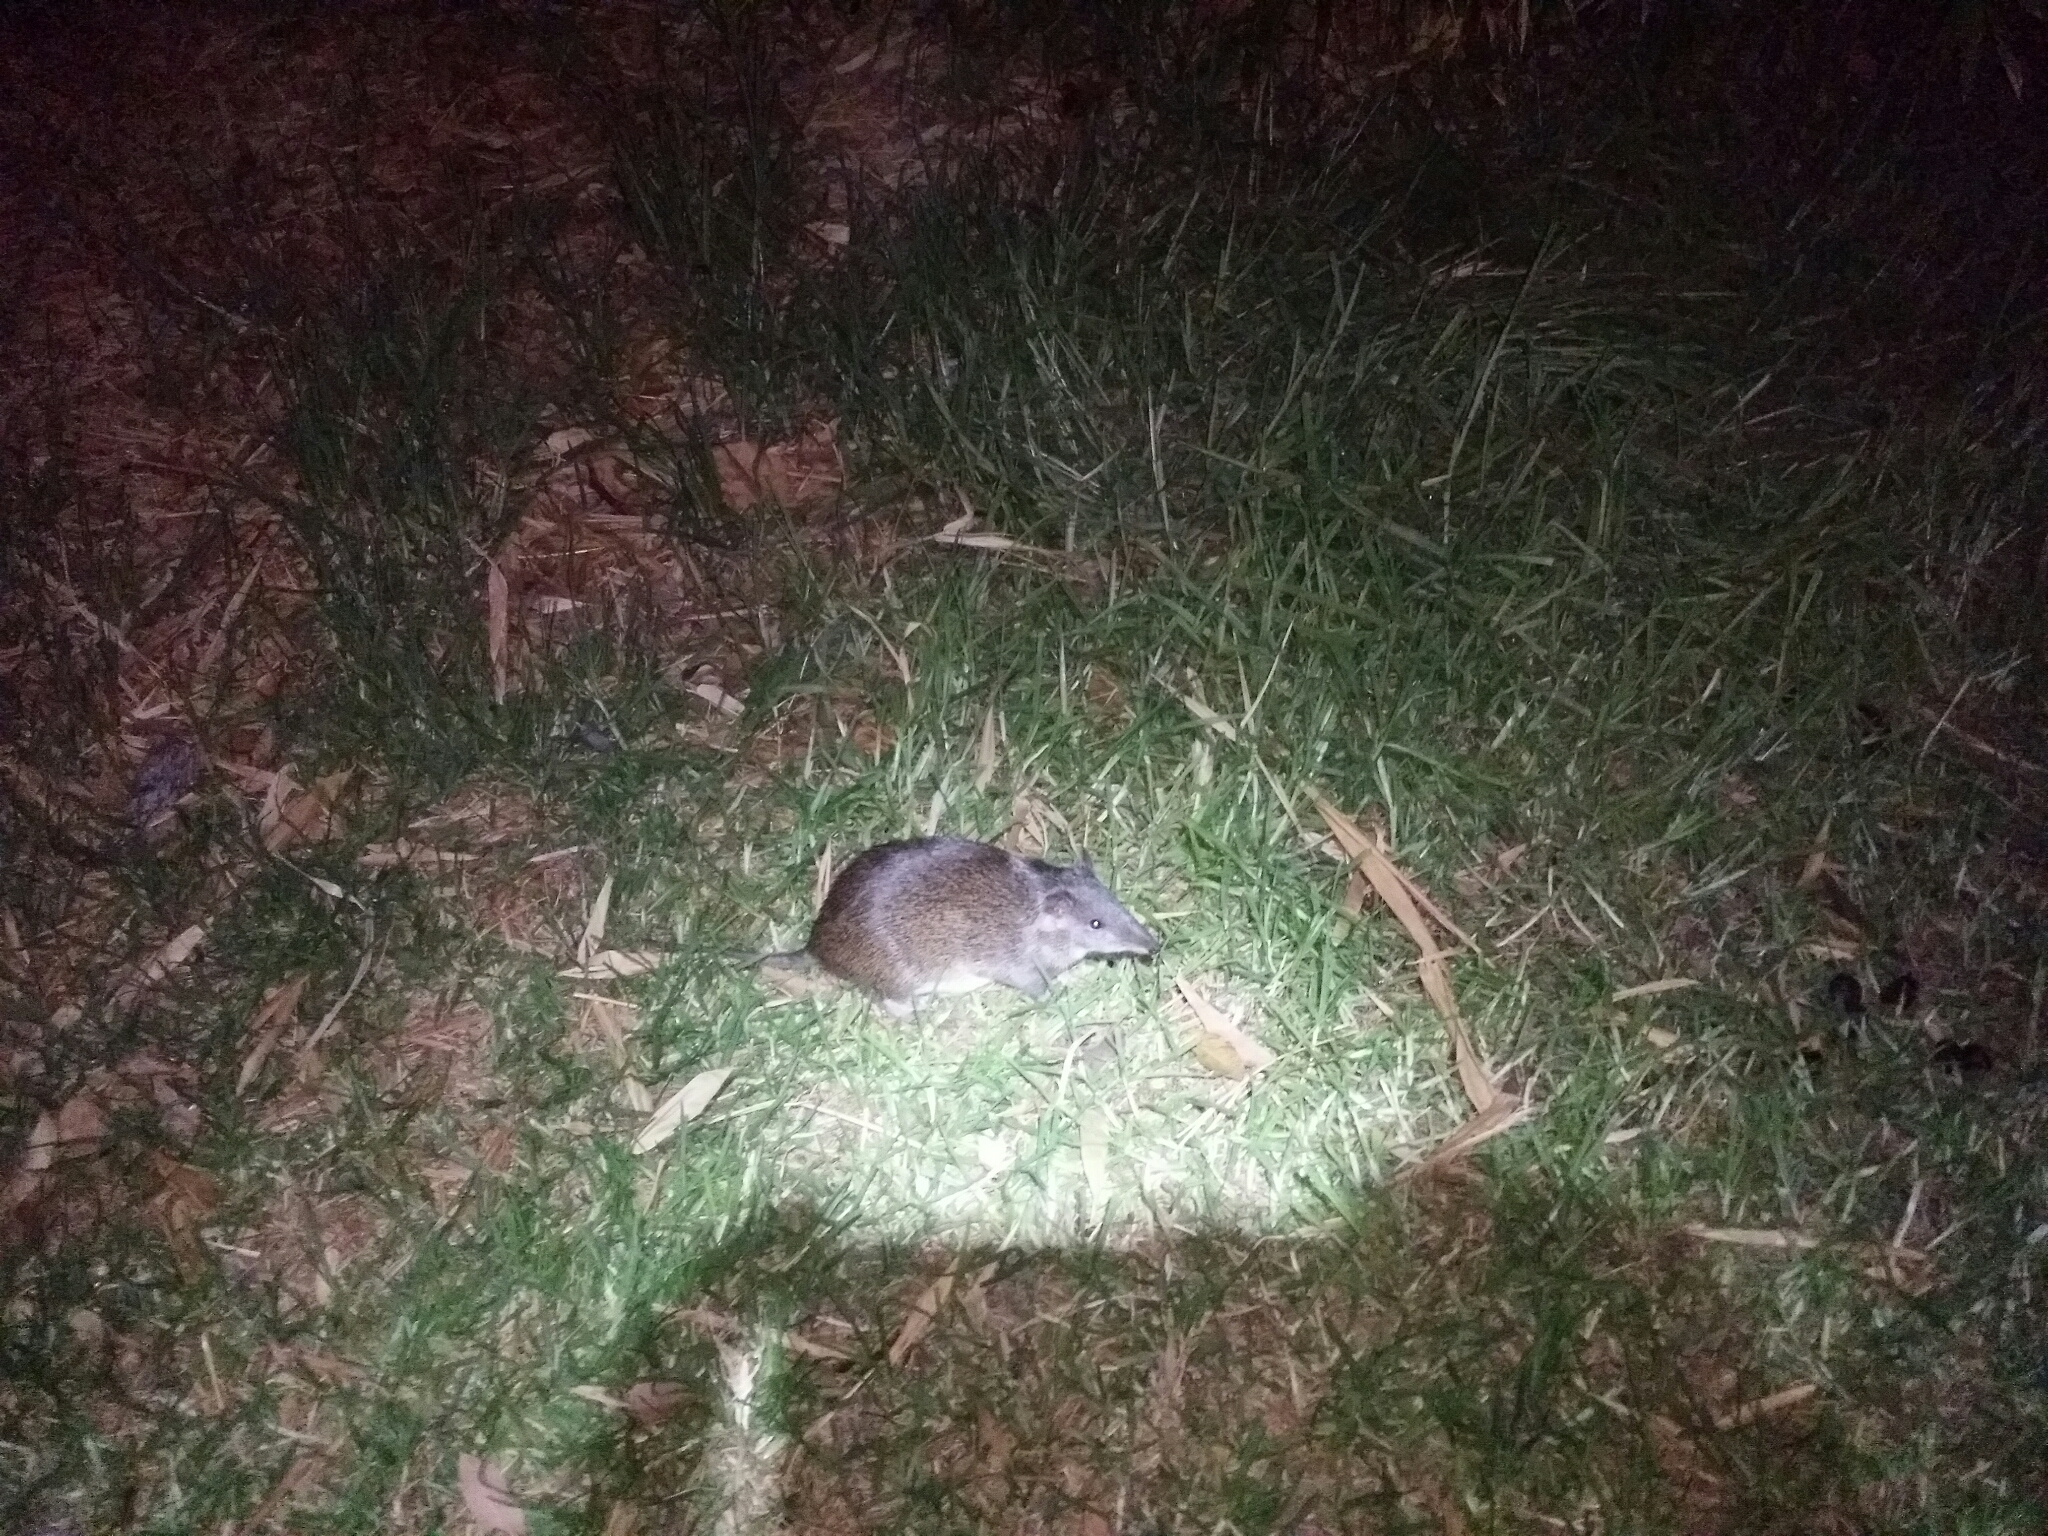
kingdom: Animalia
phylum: Chordata
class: Mammalia
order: Peramelemorphia
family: Peramelidae
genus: Isoodon
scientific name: Isoodon fusciventer
